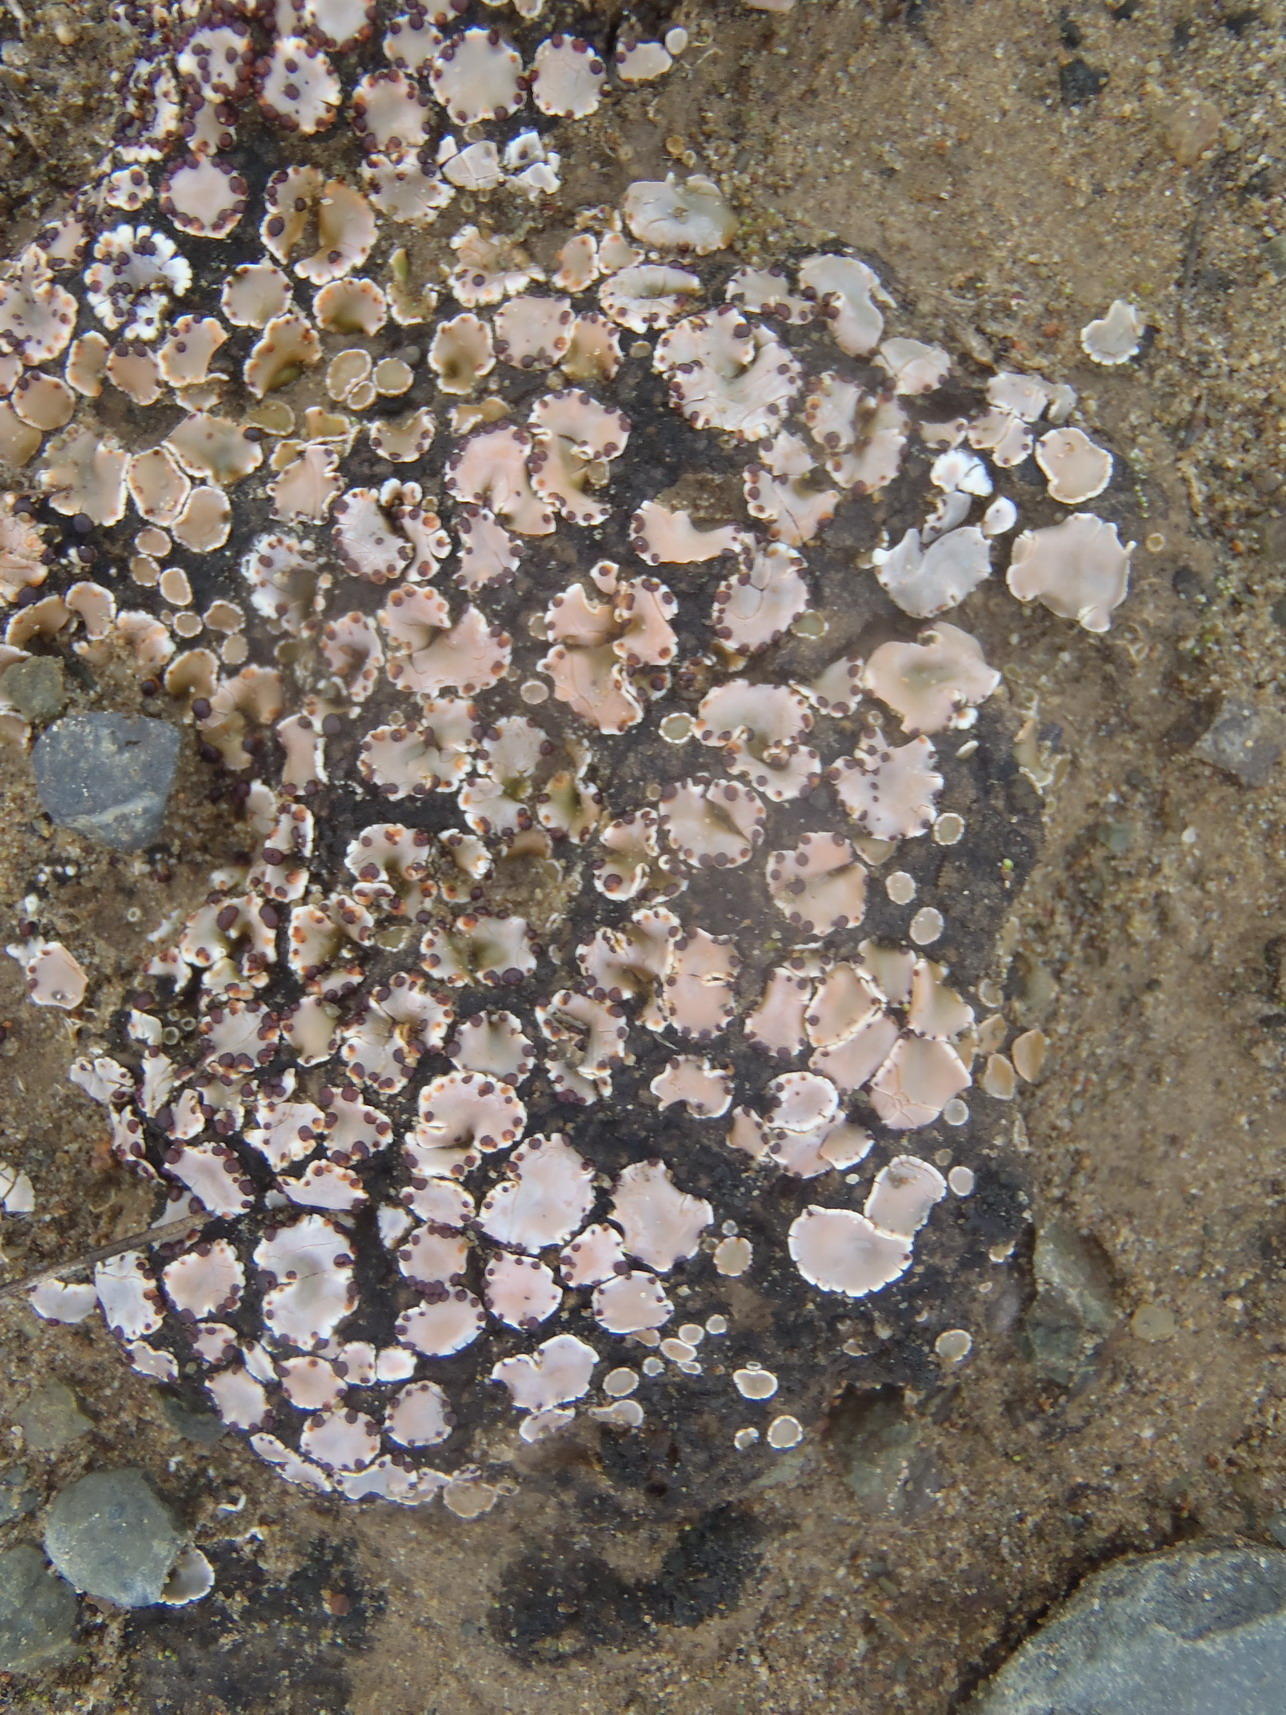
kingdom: Fungi
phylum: Ascomycota
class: Lecanoromycetes
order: Lecanorales
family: Psoraceae
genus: Psora
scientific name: Psora crenata
